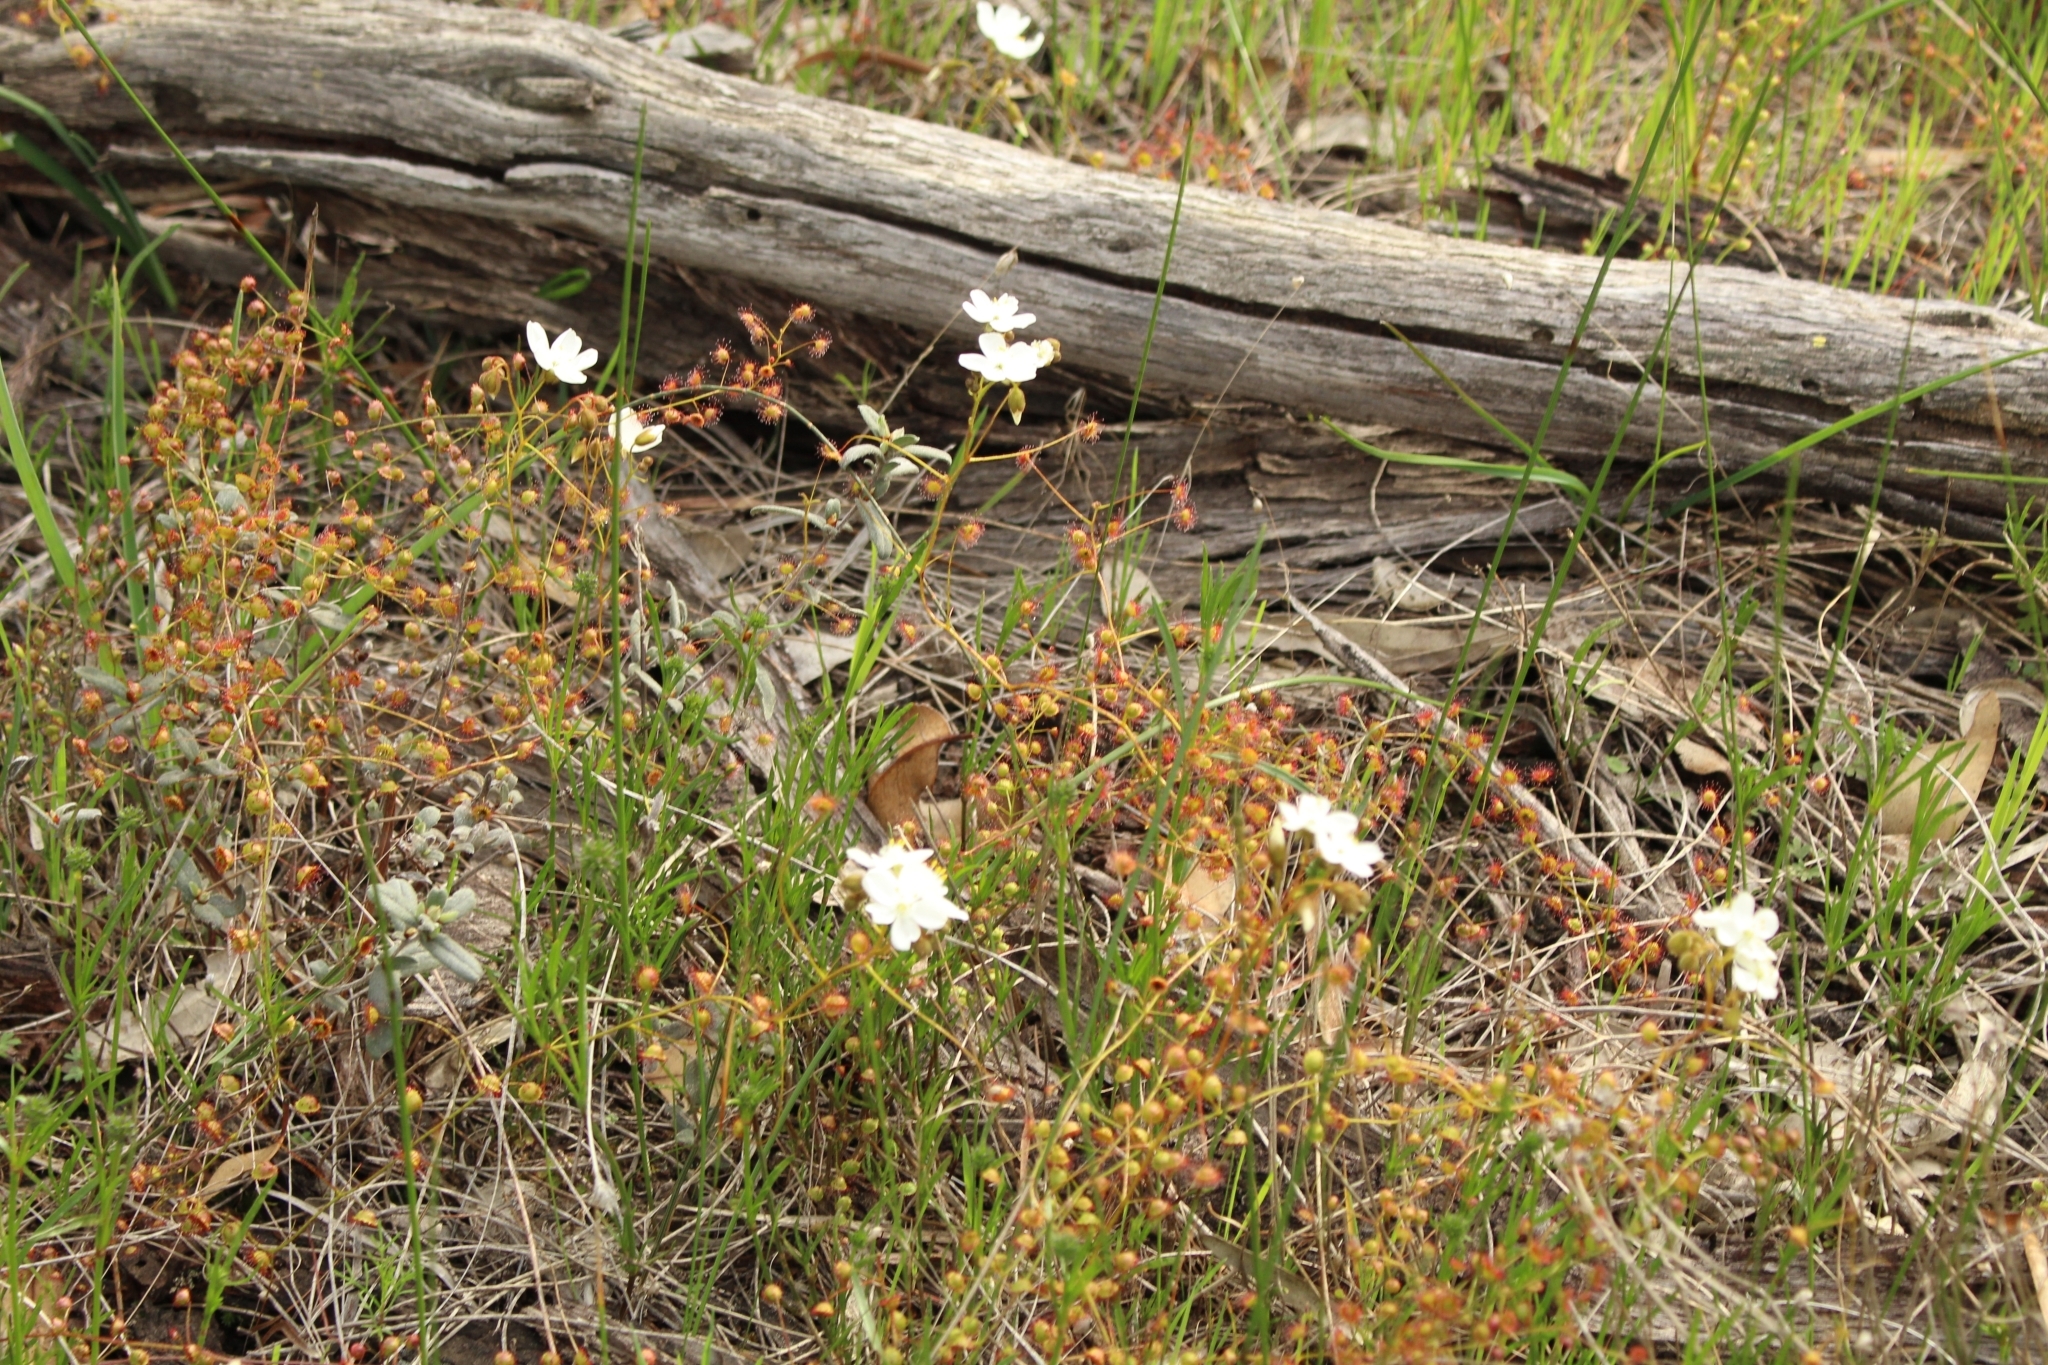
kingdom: Plantae
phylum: Tracheophyta
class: Magnoliopsida
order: Caryophyllales
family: Droseraceae
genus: Drosera
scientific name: Drosera macrantha
